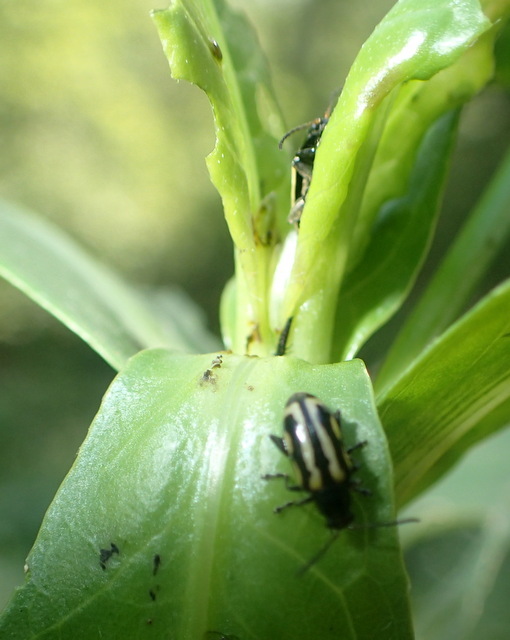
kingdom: Animalia
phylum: Arthropoda
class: Insecta
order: Coleoptera
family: Chrysomelidae
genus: Agasicles
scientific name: Agasicles hygrophila
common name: Alligatorweed flea beetle
